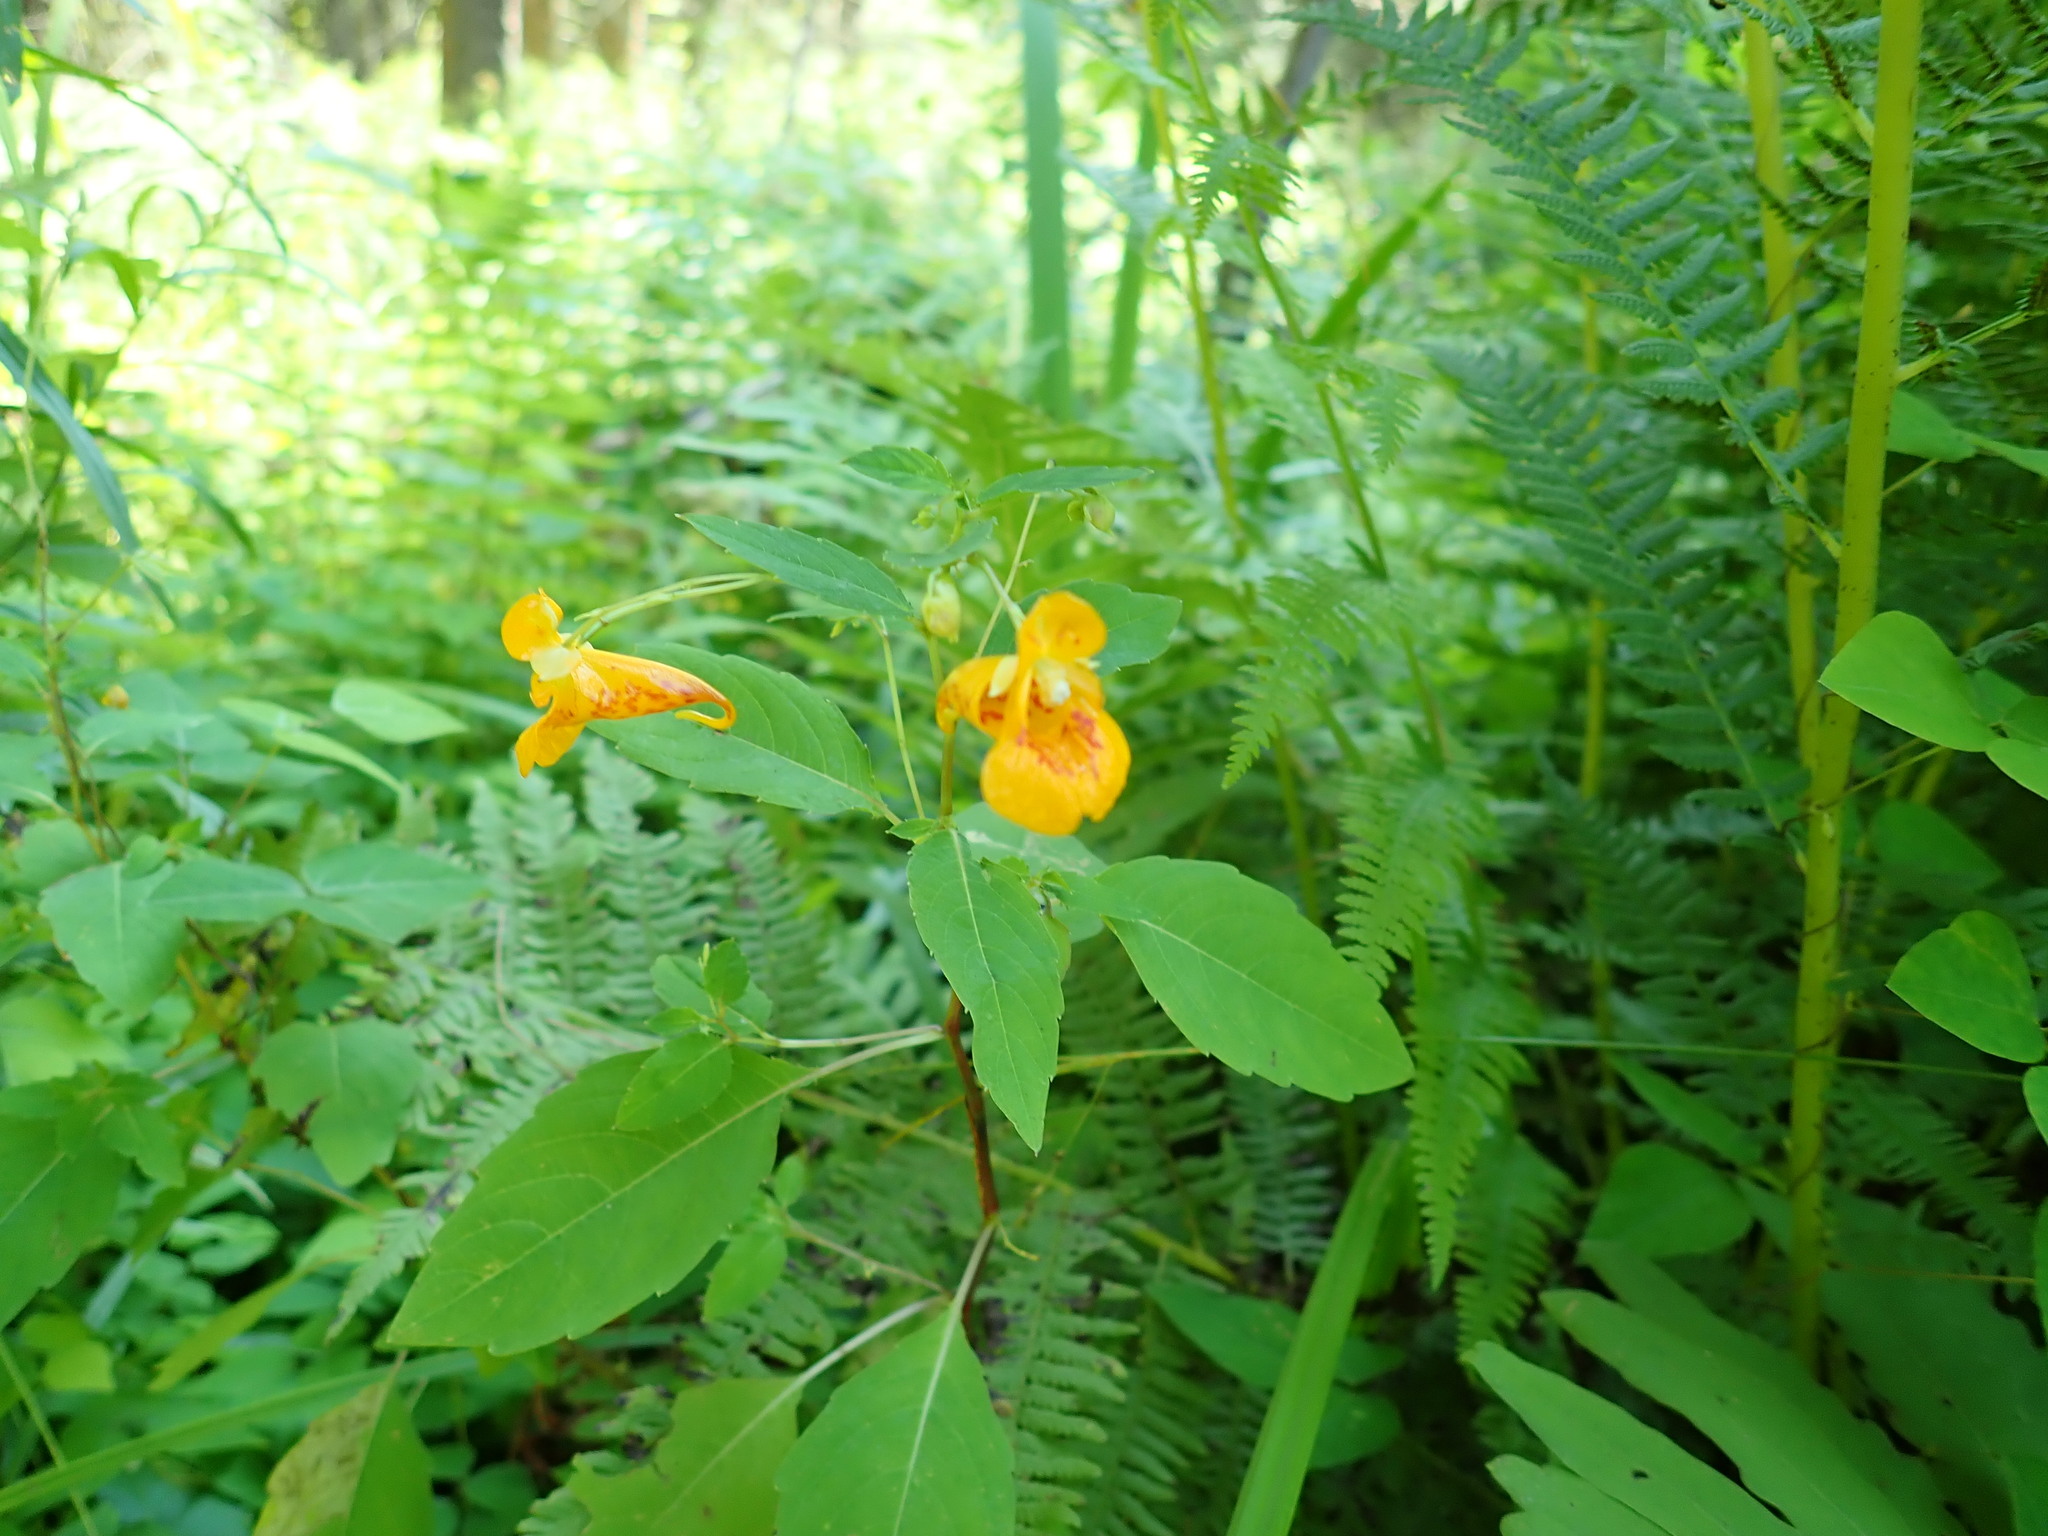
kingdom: Plantae
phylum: Tracheophyta
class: Magnoliopsida
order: Ericales
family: Balsaminaceae
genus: Impatiens
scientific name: Impatiens capensis
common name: Orange balsam
